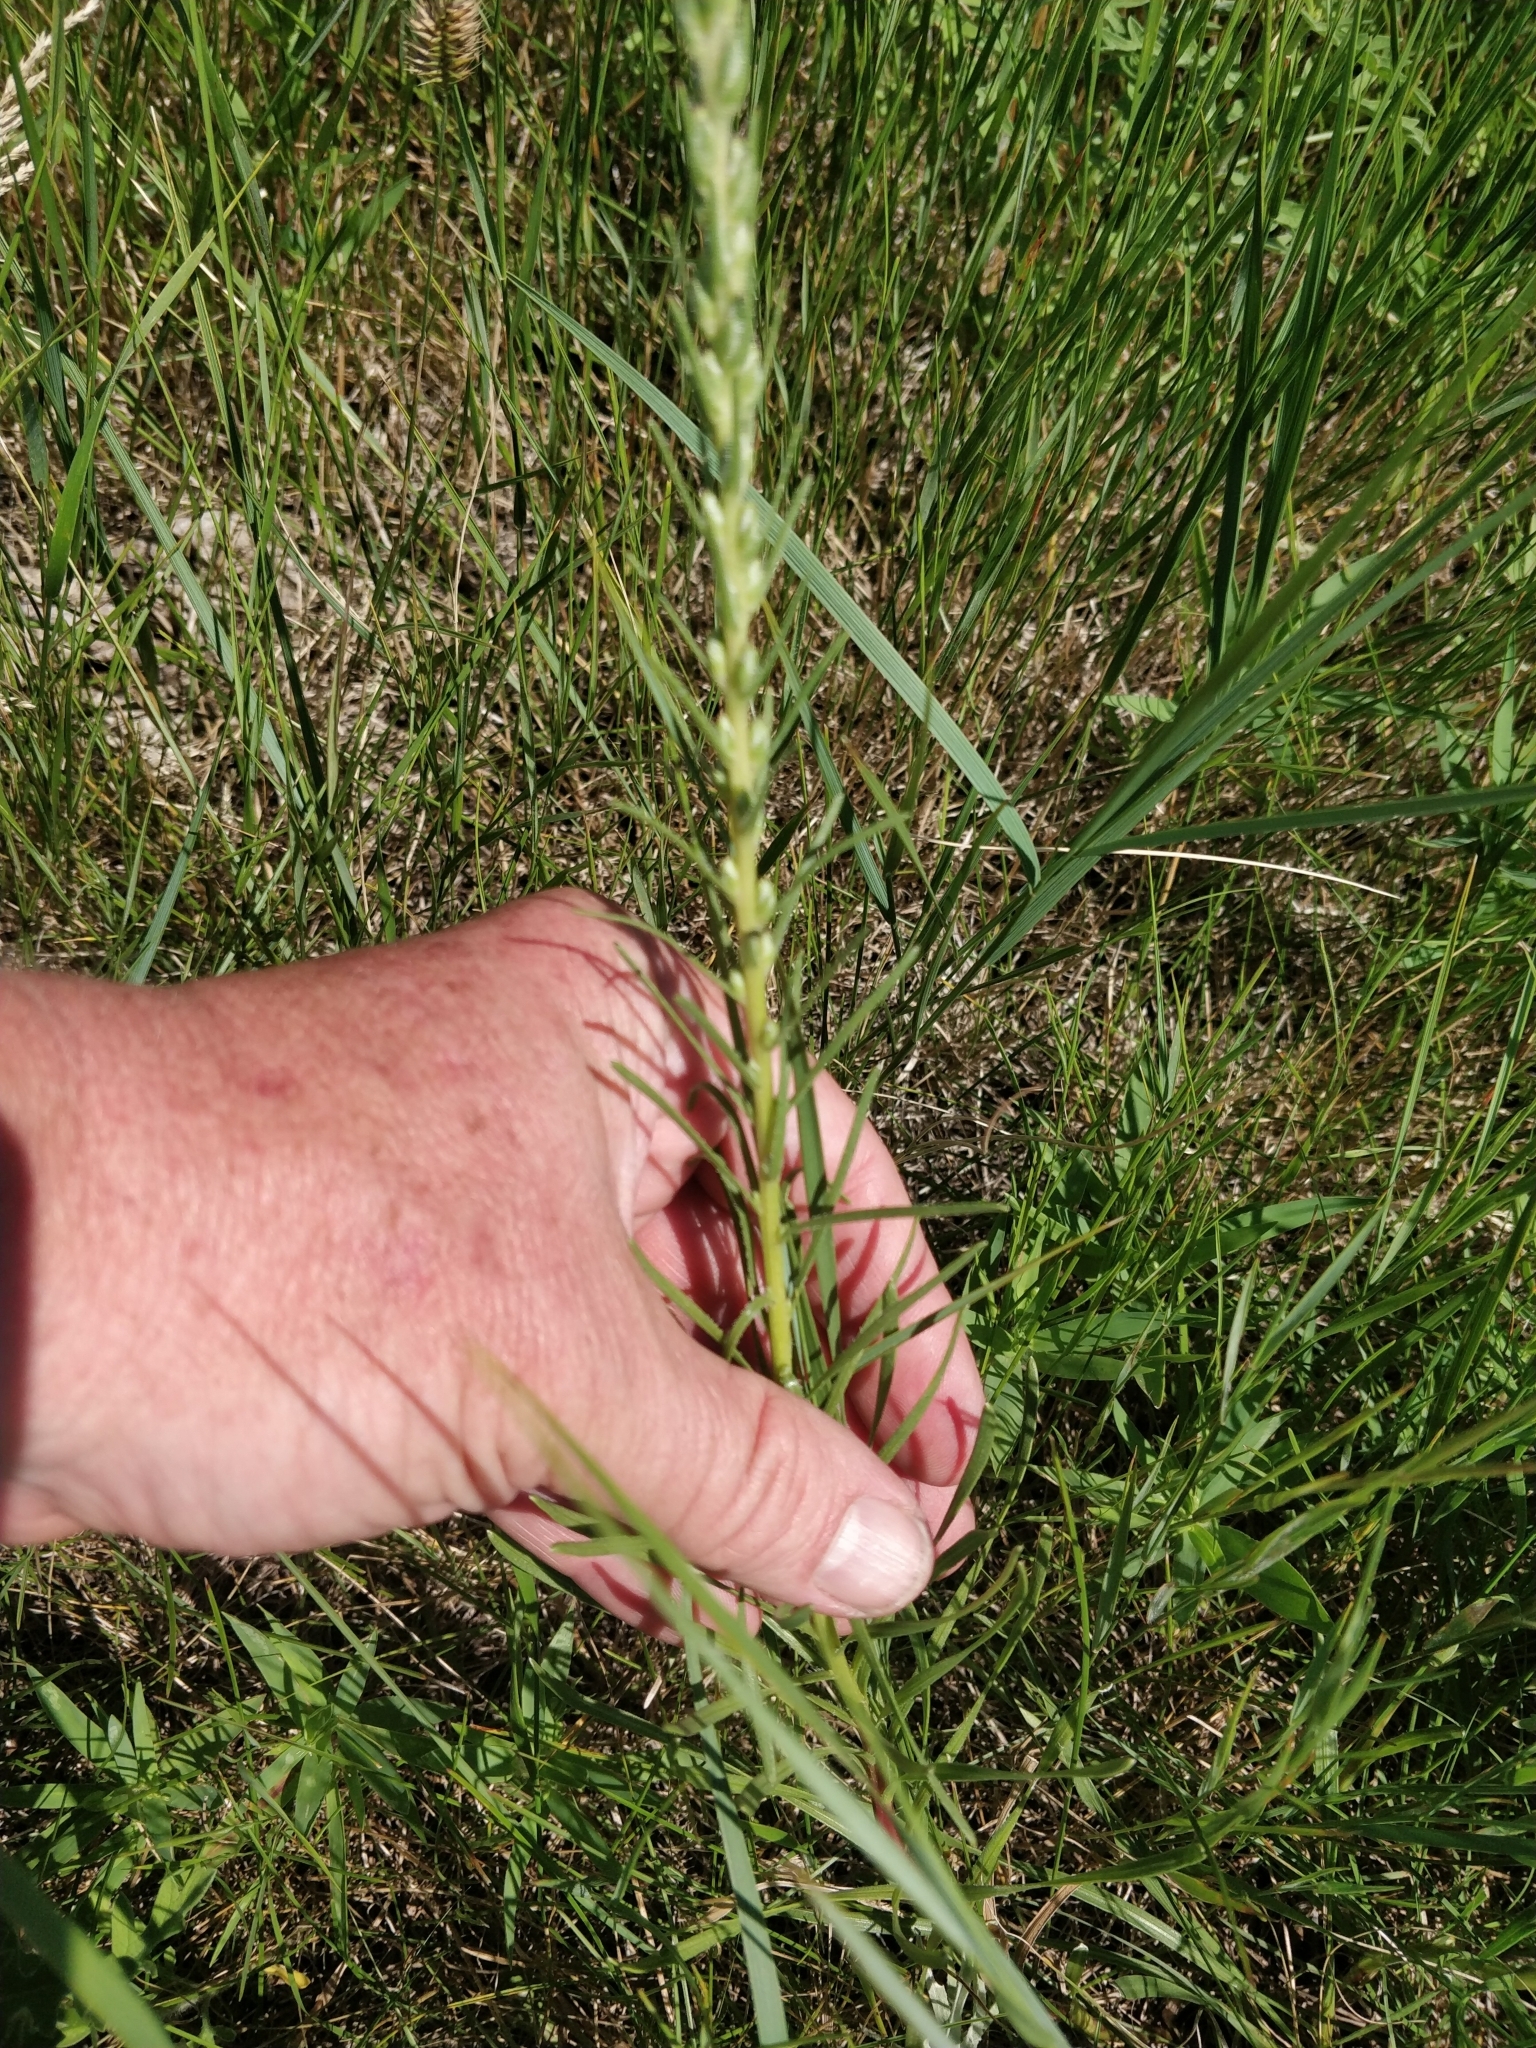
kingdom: Plantae
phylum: Tracheophyta
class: Magnoliopsida
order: Asterales
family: Asteraceae
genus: Liatris
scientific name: Liatris punctata
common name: Dotted gayfeather
